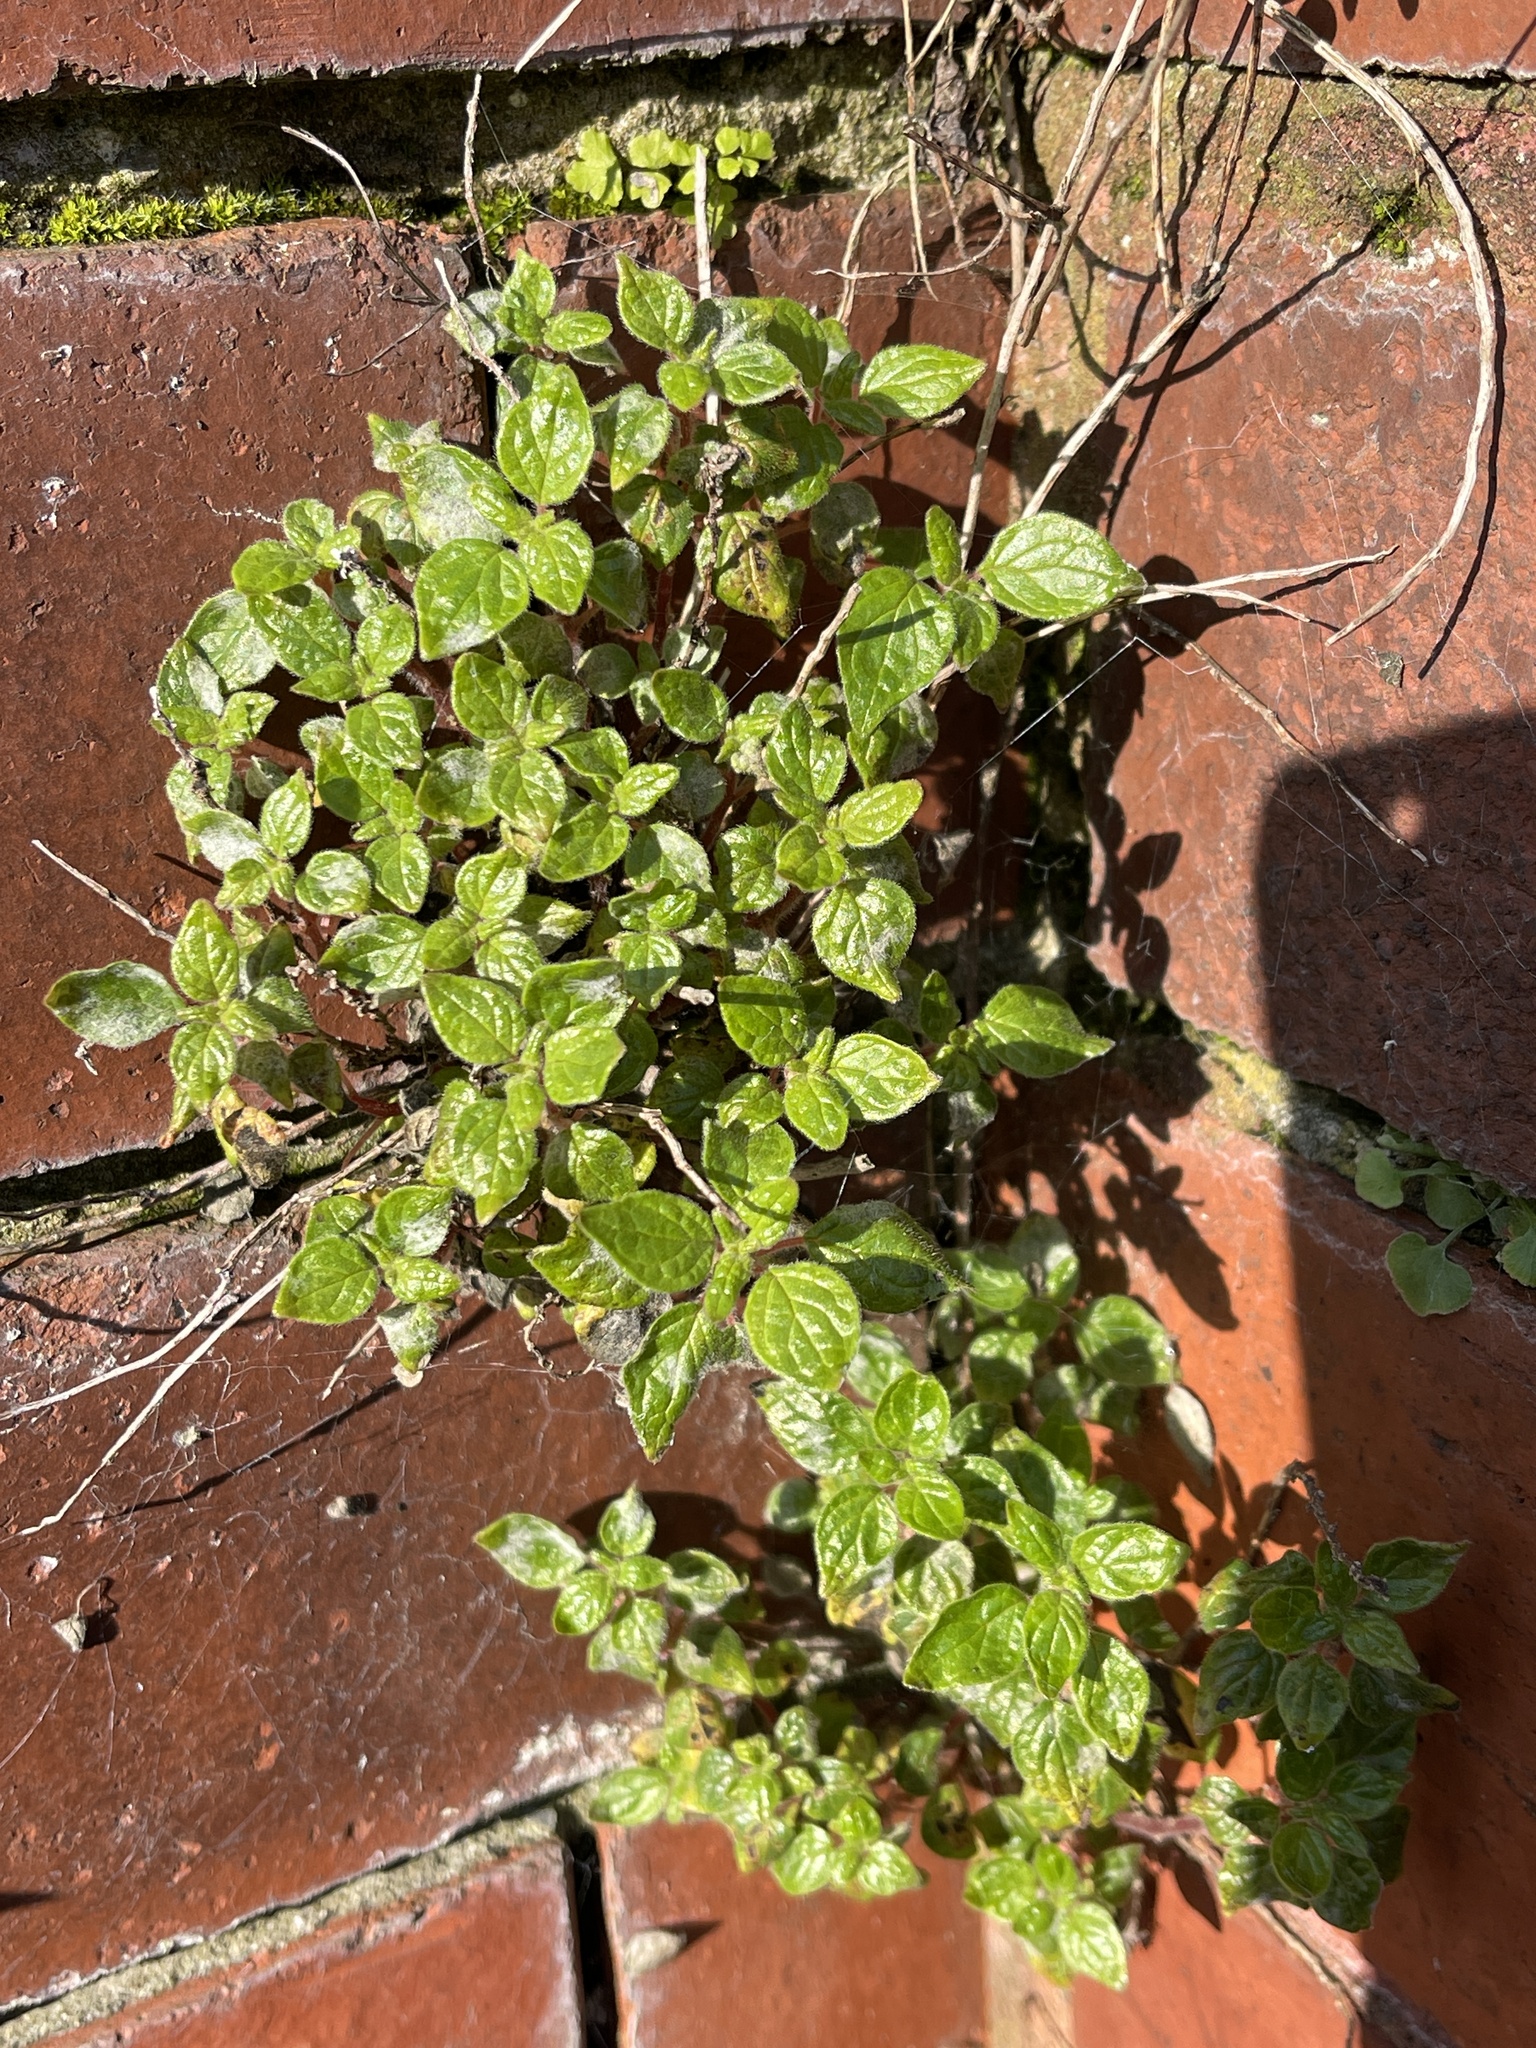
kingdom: Plantae
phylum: Tracheophyta
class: Magnoliopsida
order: Rosales
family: Urticaceae
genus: Parietaria
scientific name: Parietaria judaica
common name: Pellitory-of-the-wall
